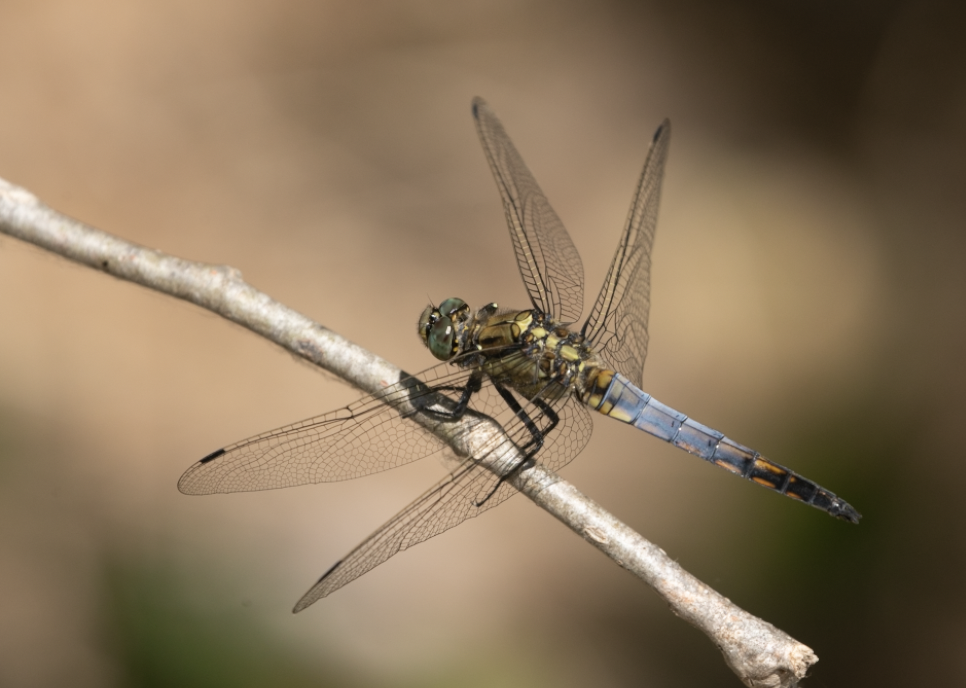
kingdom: Animalia
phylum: Arthropoda
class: Insecta
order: Odonata
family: Libellulidae
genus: Orthetrum
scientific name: Orthetrum cancellatum
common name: Black-tailed skimmer
